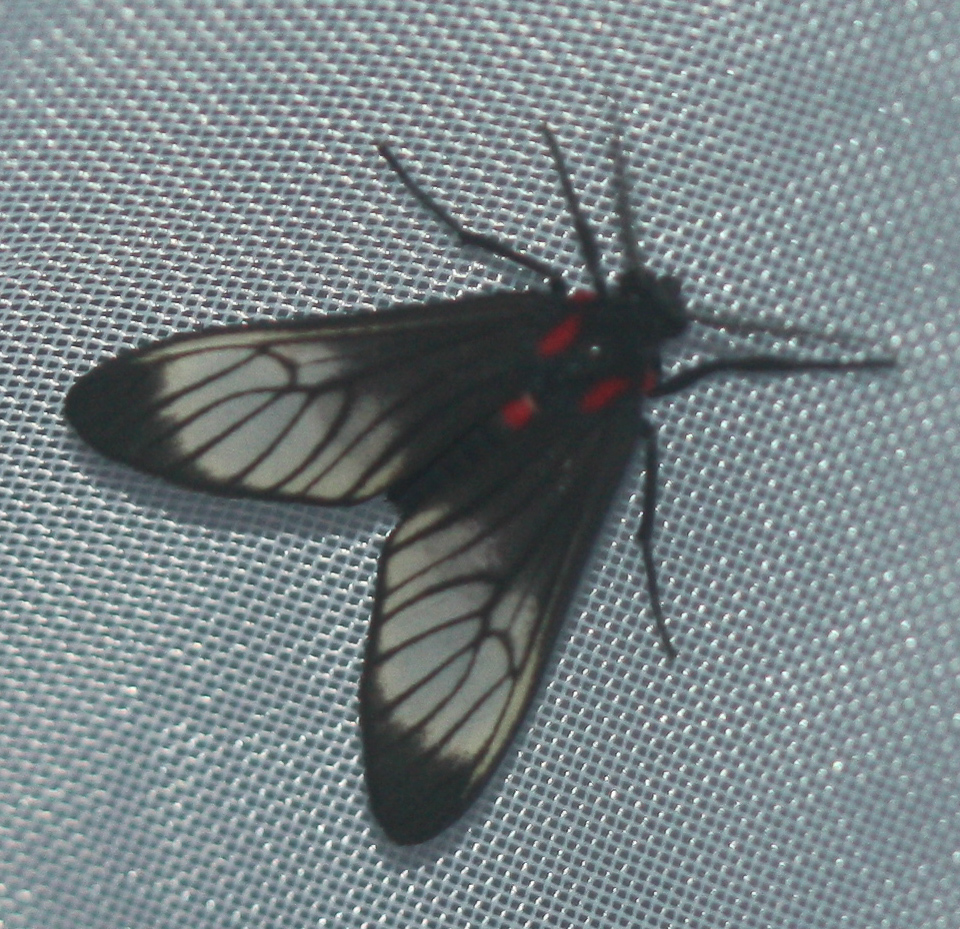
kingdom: Animalia
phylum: Arthropoda
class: Insecta
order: Lepidoptera
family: Erebidae
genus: Hyperphara
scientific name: Hyperphara clusia
